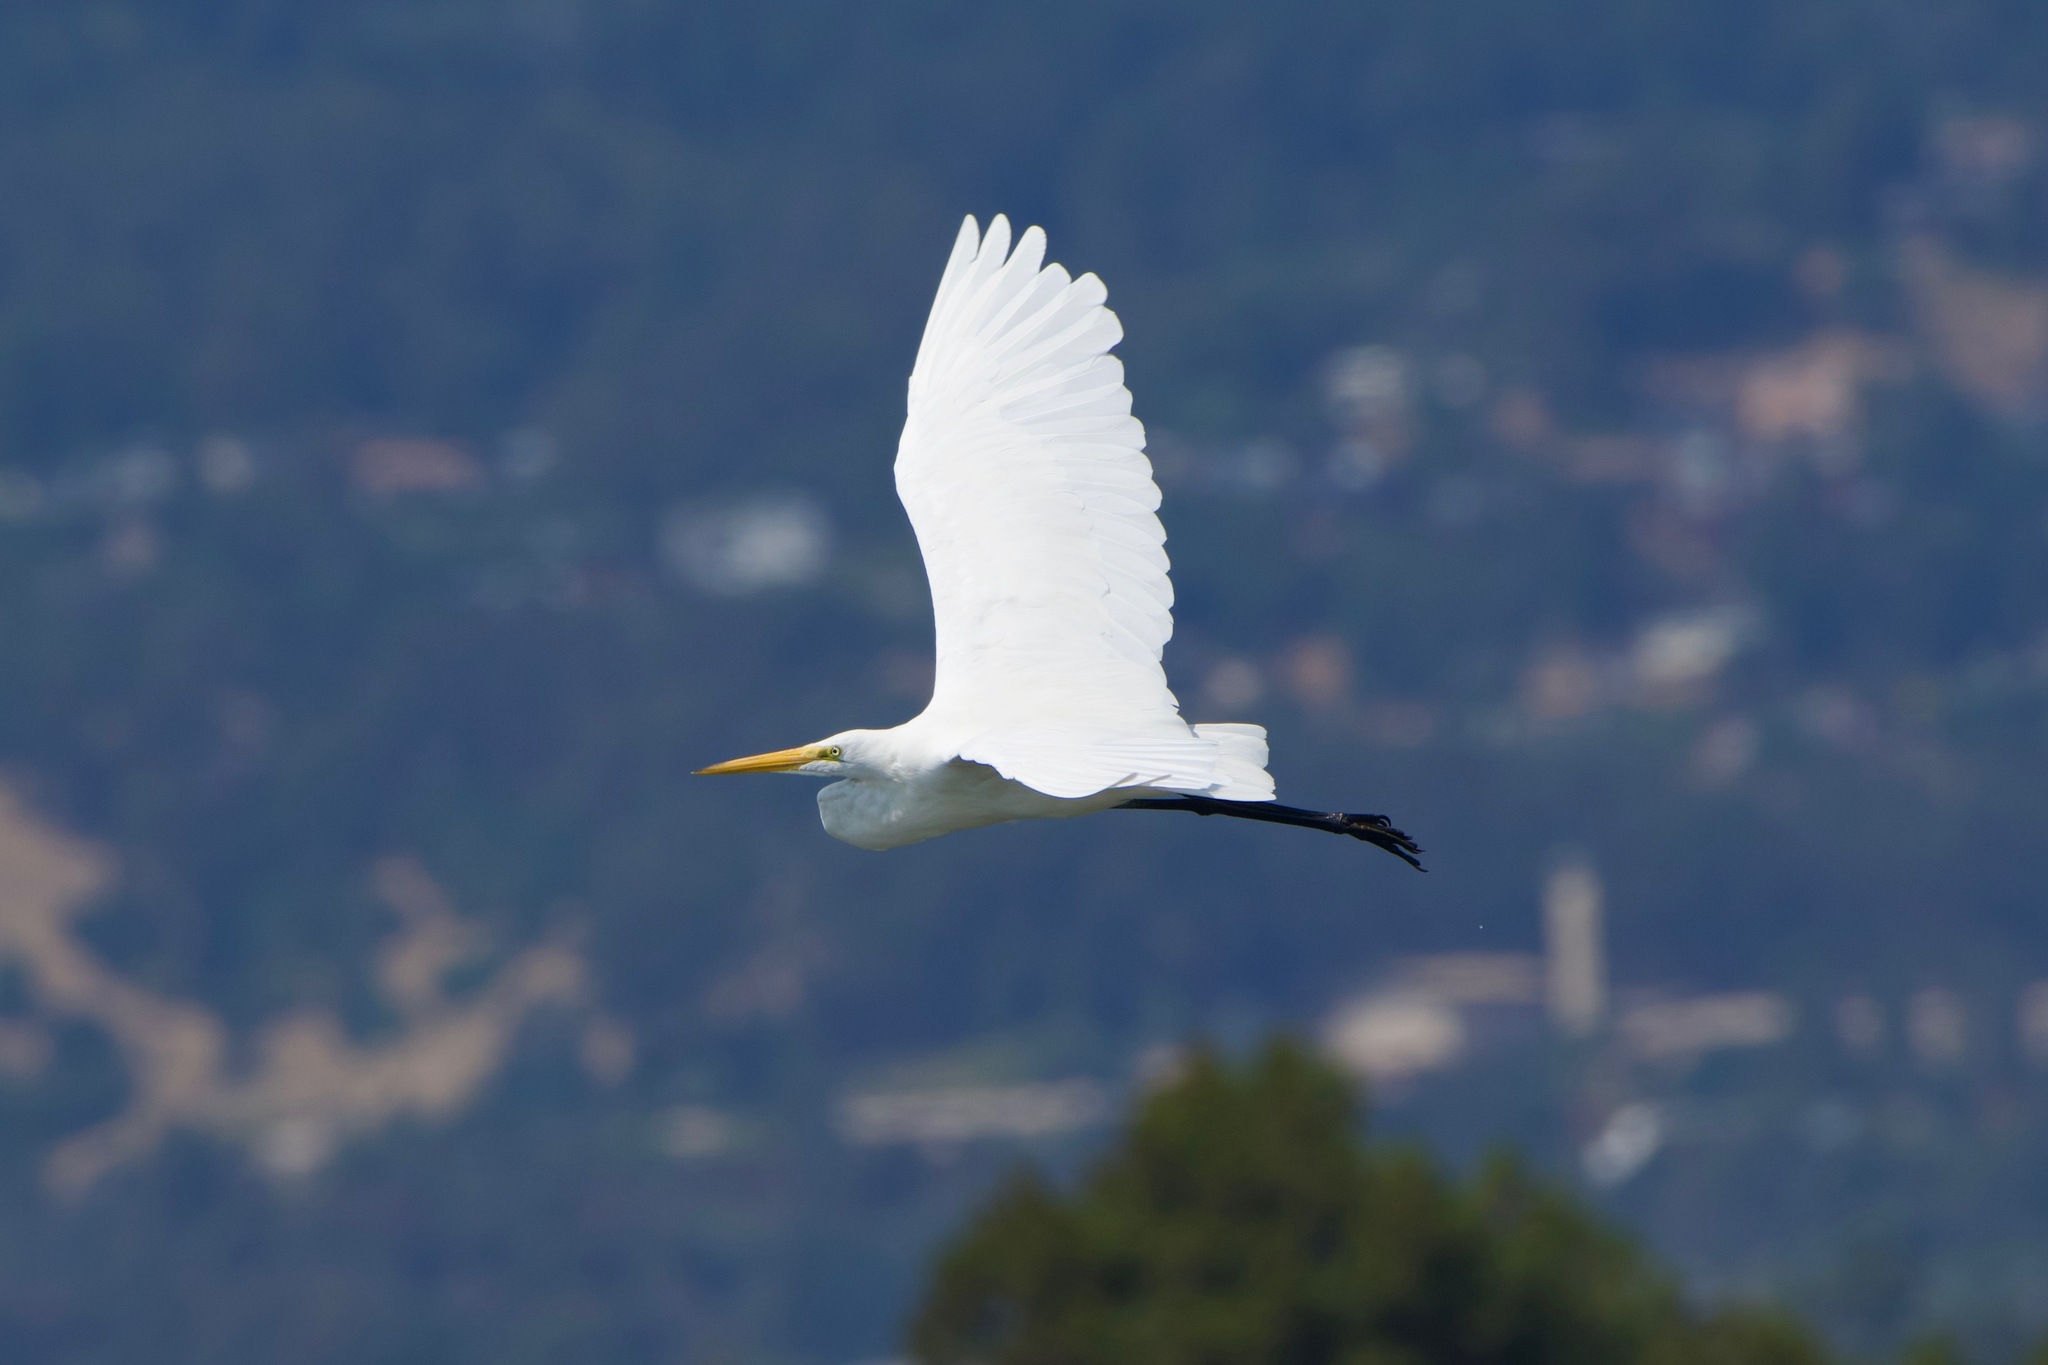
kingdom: Animalia
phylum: Chordata
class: Aves
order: Pelecaniformes
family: Ardeidae
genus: Ardea
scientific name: Ardea alba
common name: Great egret
